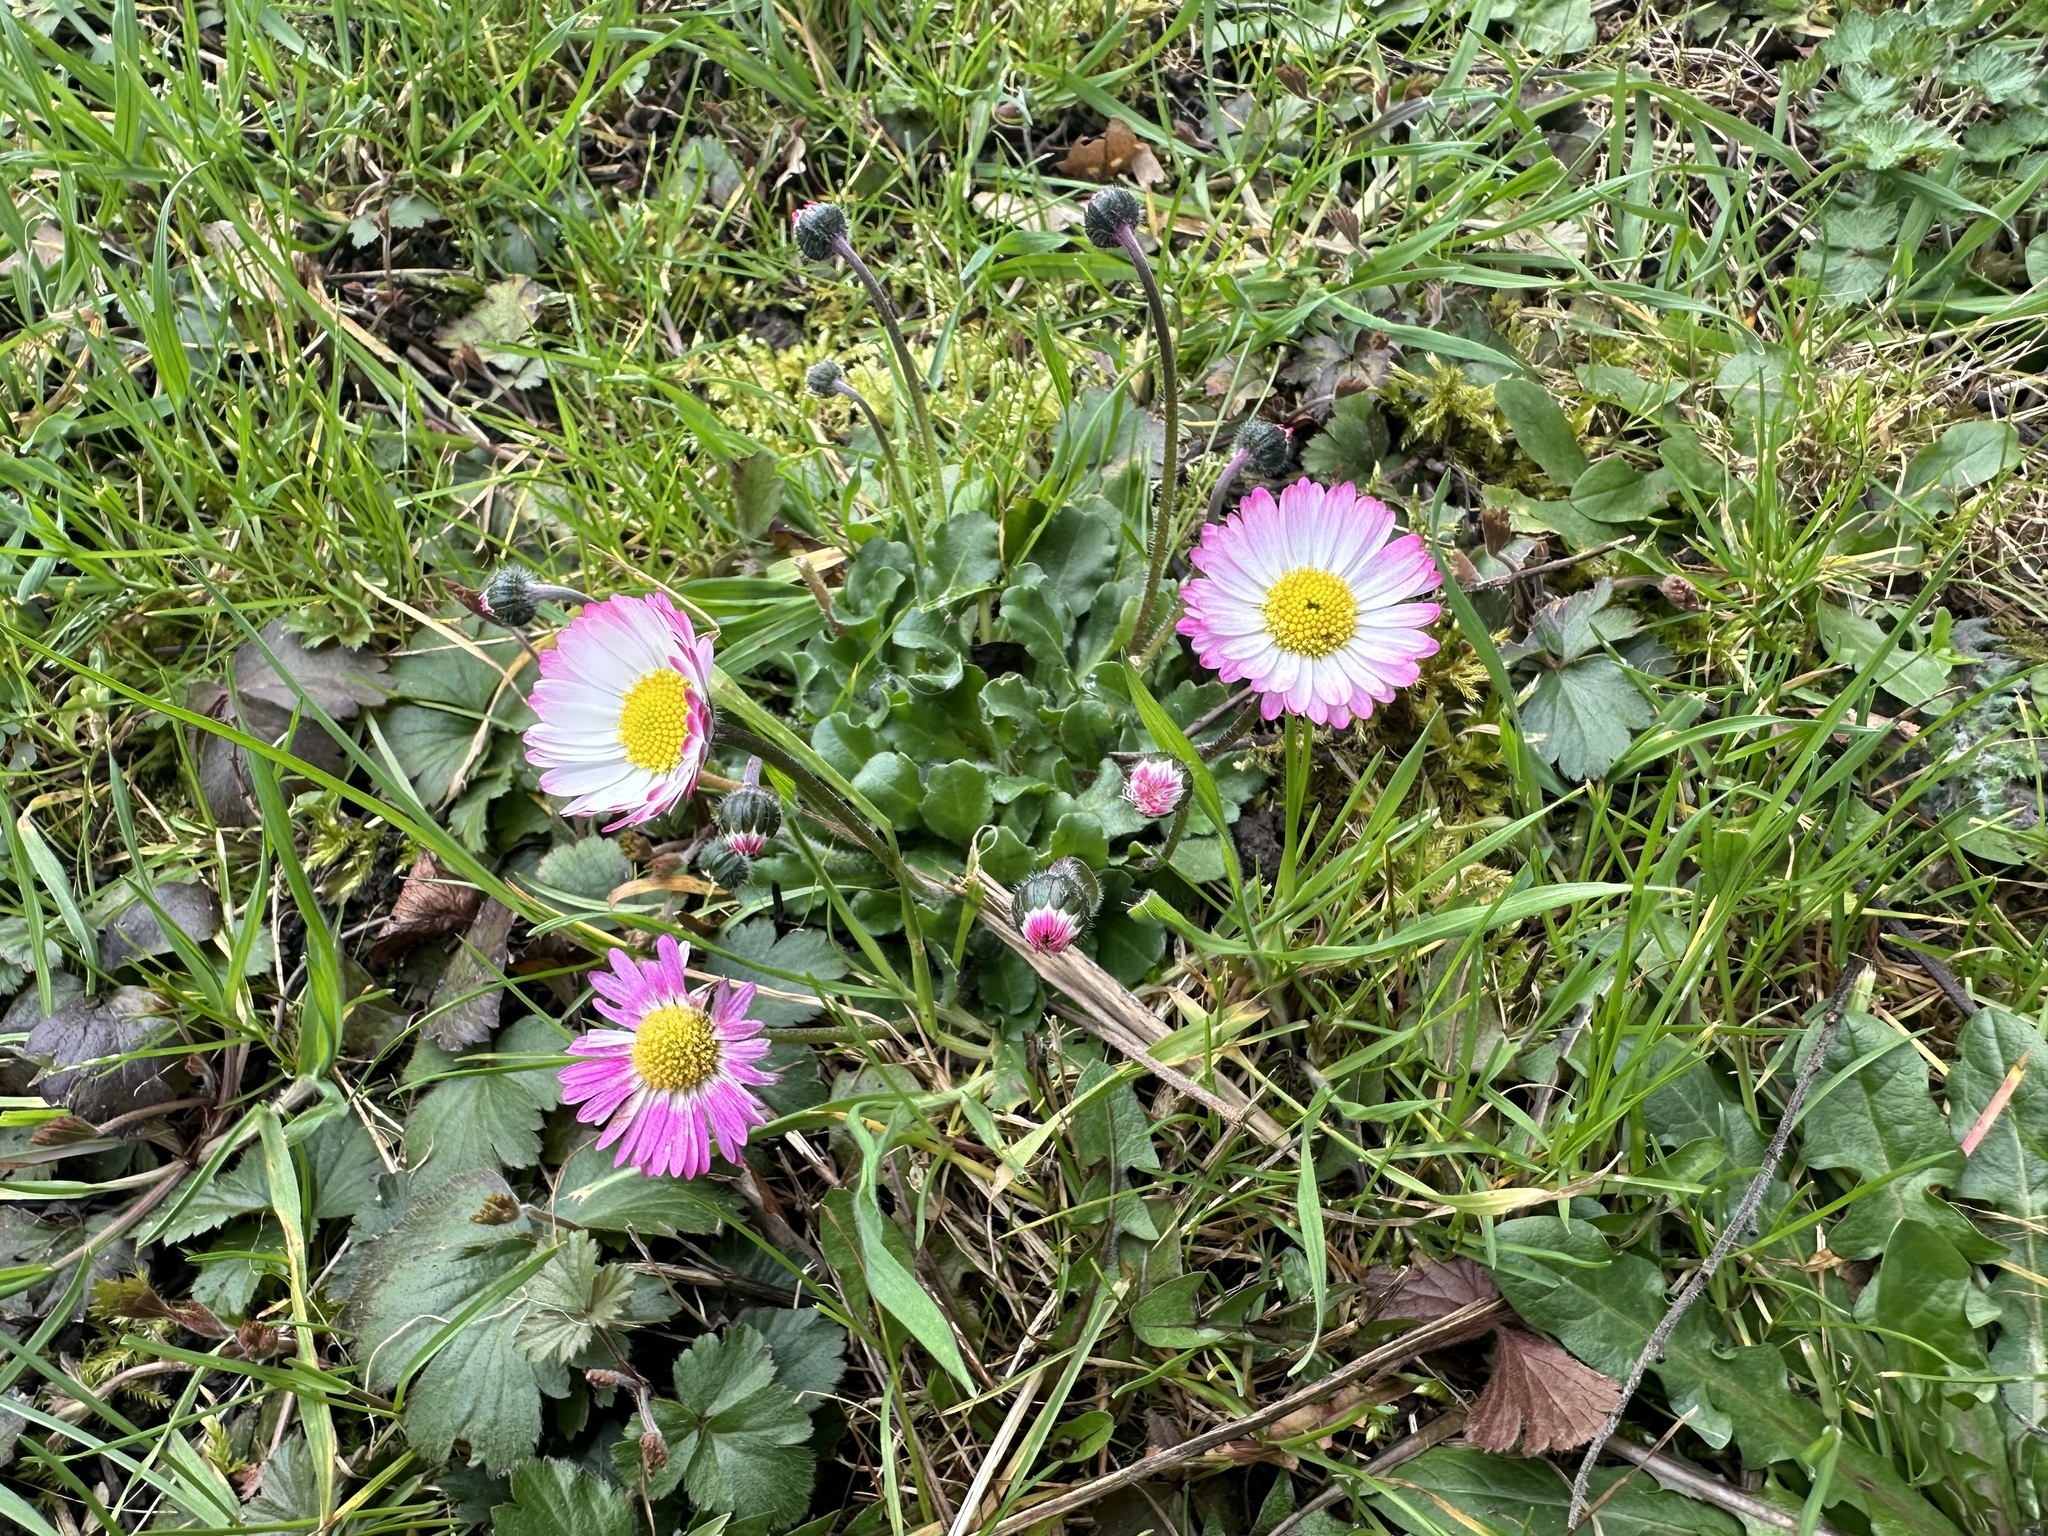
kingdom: Plantae
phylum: Tracheophyta
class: Magnoliopsida
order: Asterales
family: Asteraceae
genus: Bellis
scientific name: Bellis perennis
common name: Lawndaisy
